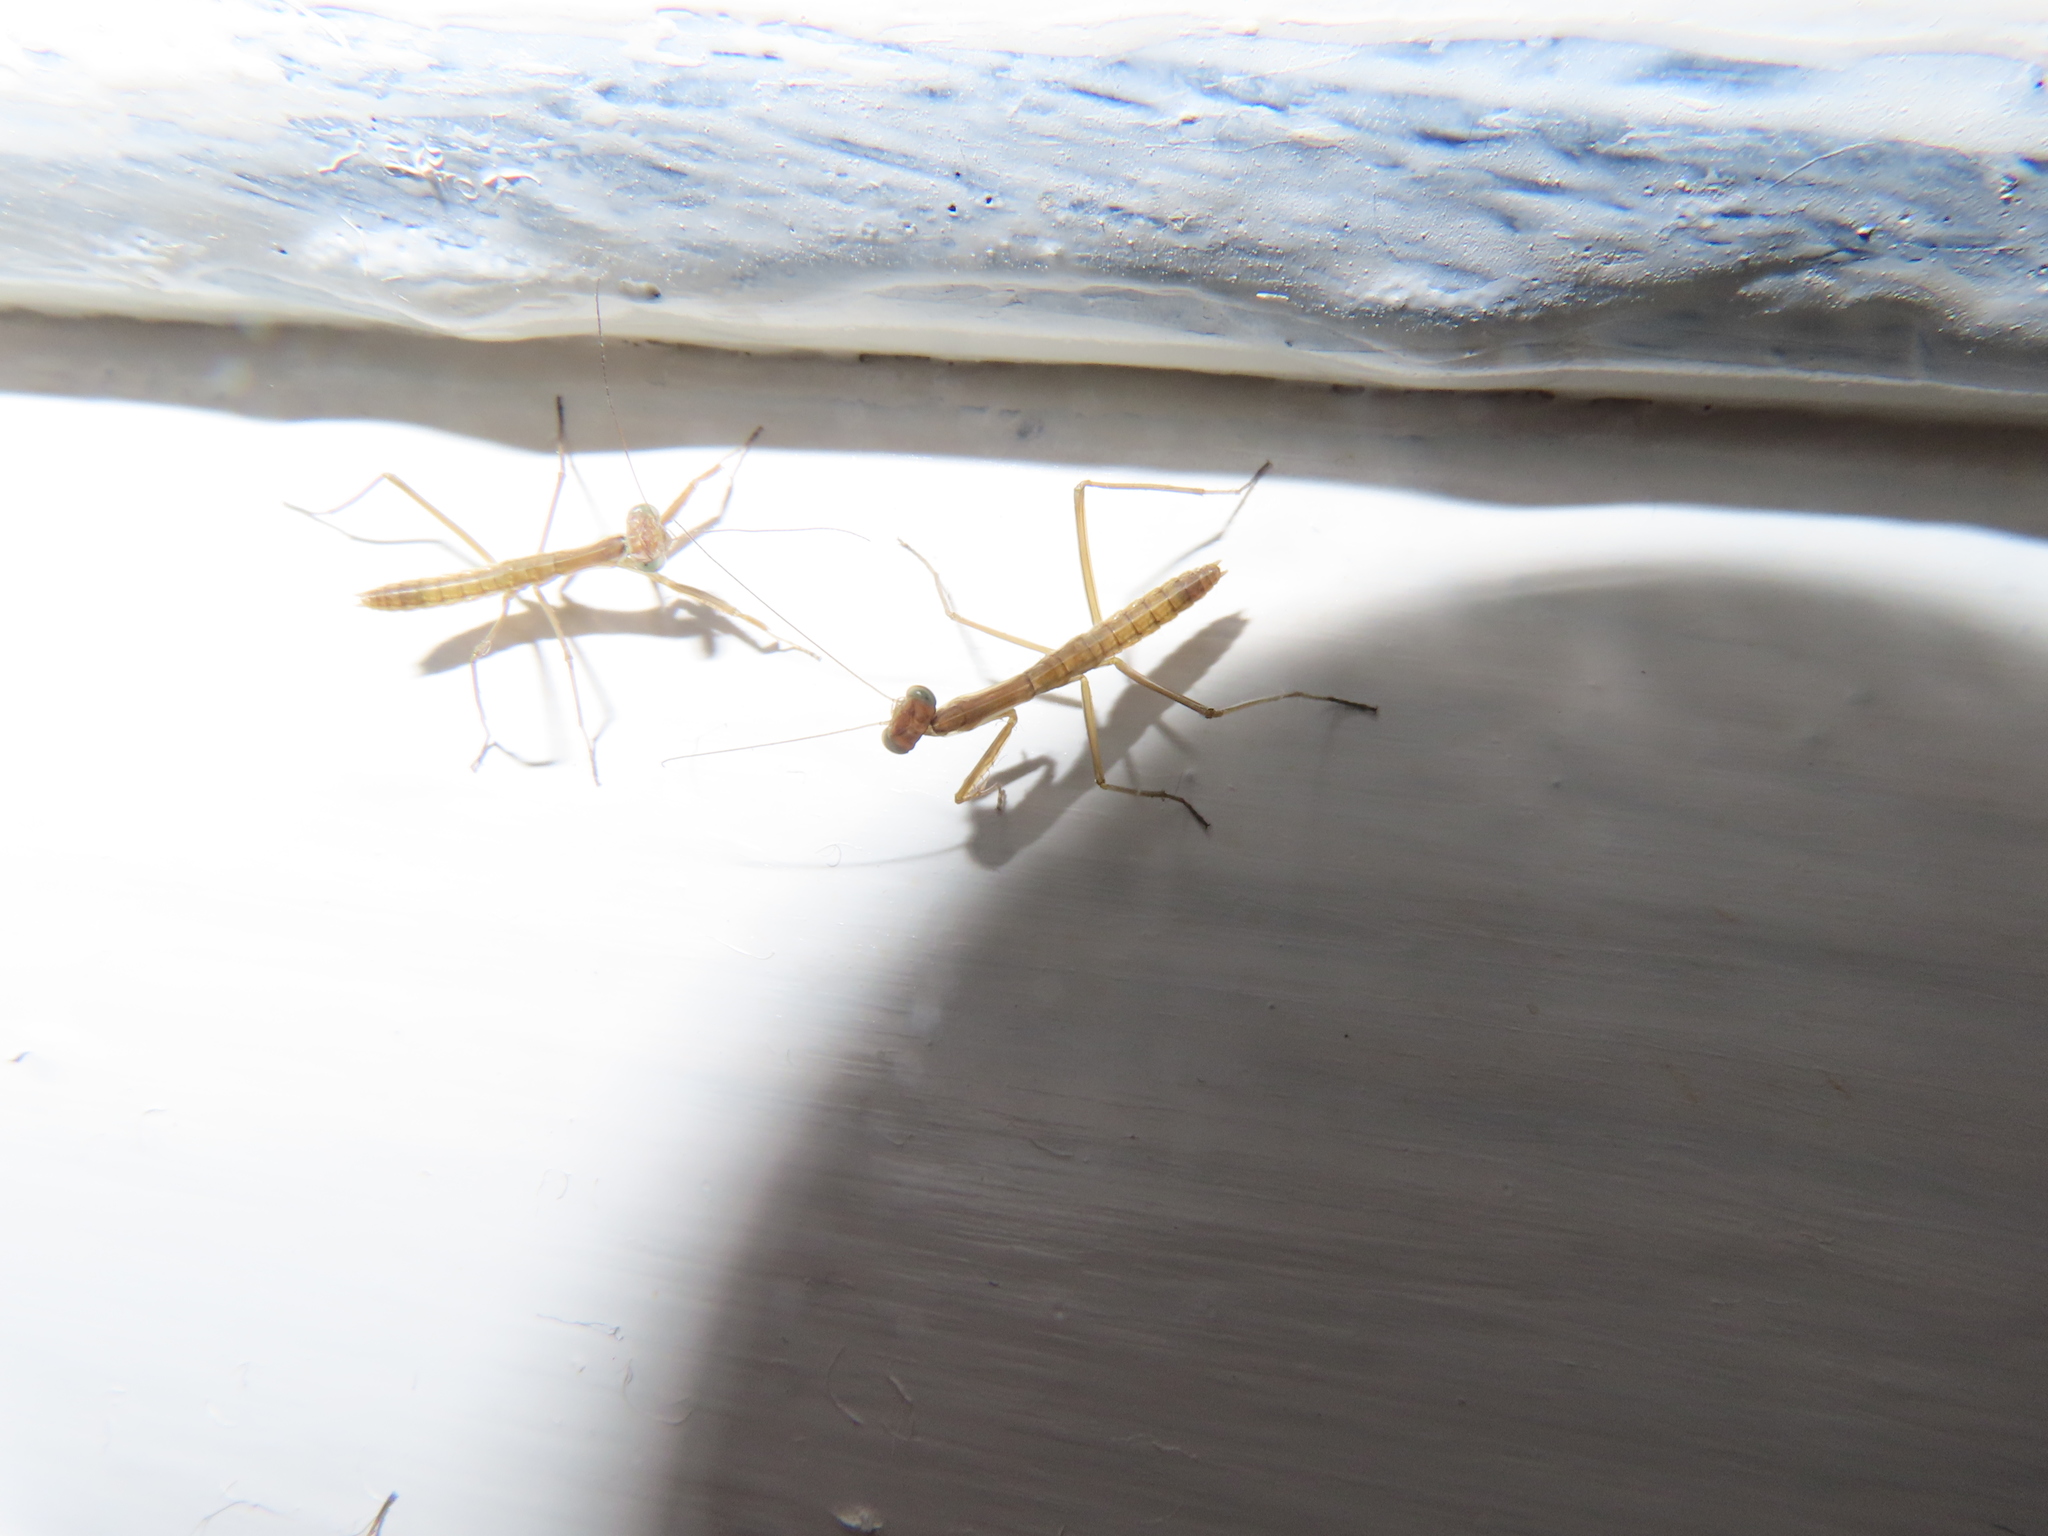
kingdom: Animalia
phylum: Arthropoda
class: Insecta
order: Mantodea
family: Mantidae
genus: Tenodera
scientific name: Tenodera sinensis
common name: Chinese mantis
